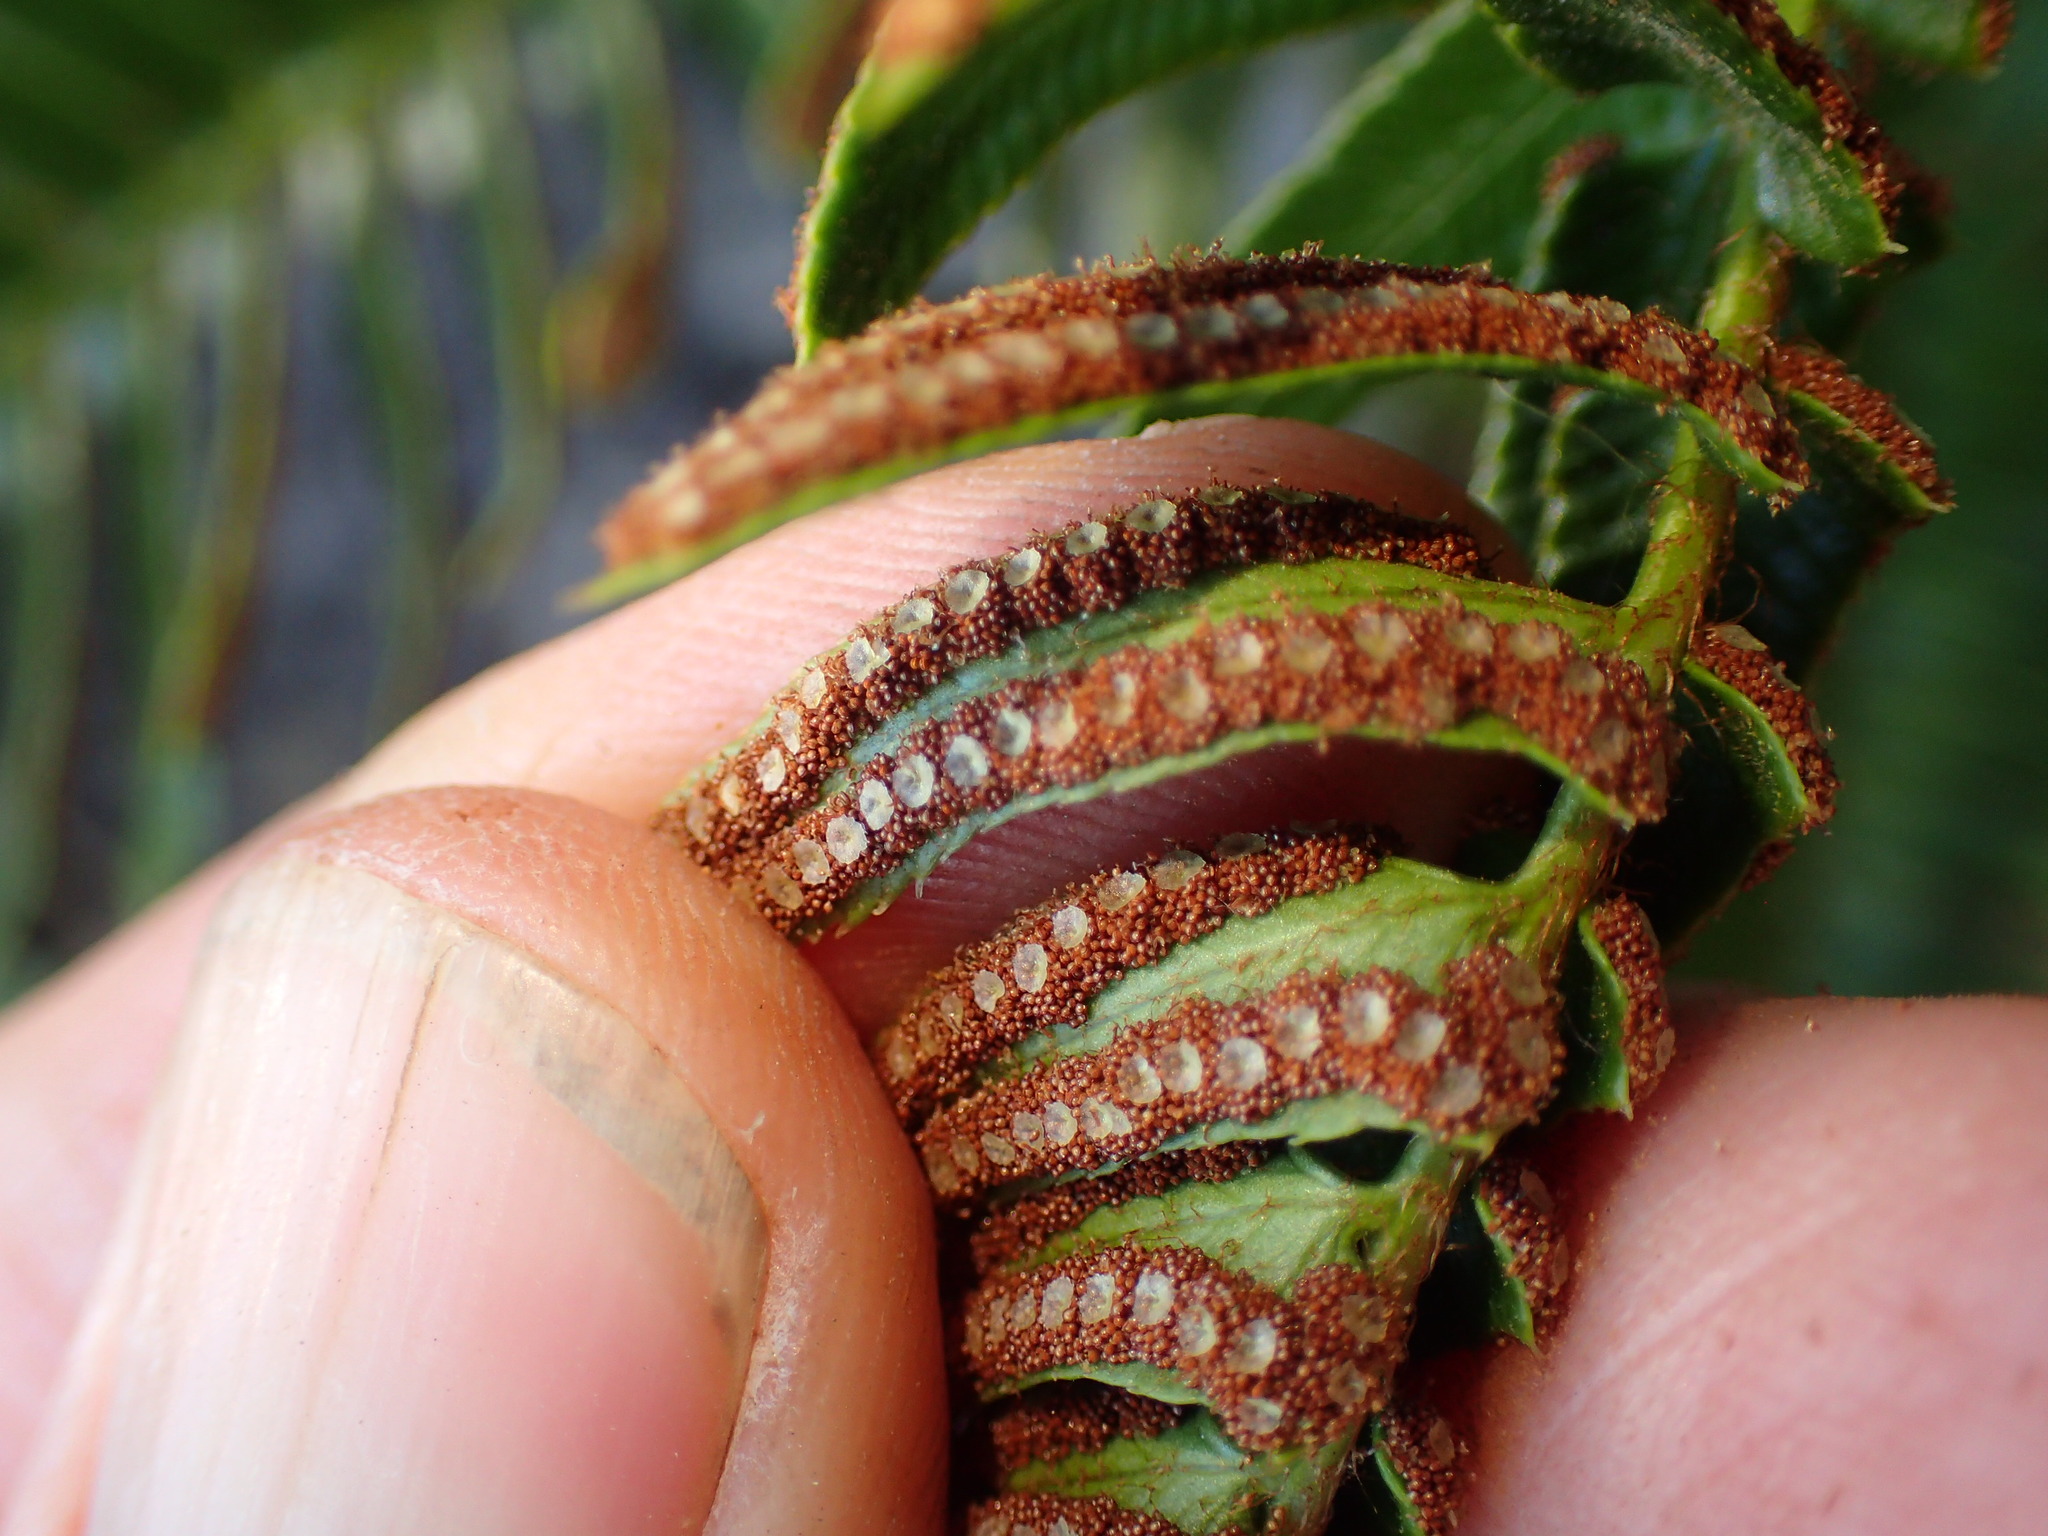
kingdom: Plantae
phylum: Tracheophyta
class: Polypodiopsida
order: Polypodiales
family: Dryopteridaceae
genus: Polystichum
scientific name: Polystichum imbricans
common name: Dwarf western sword fern
